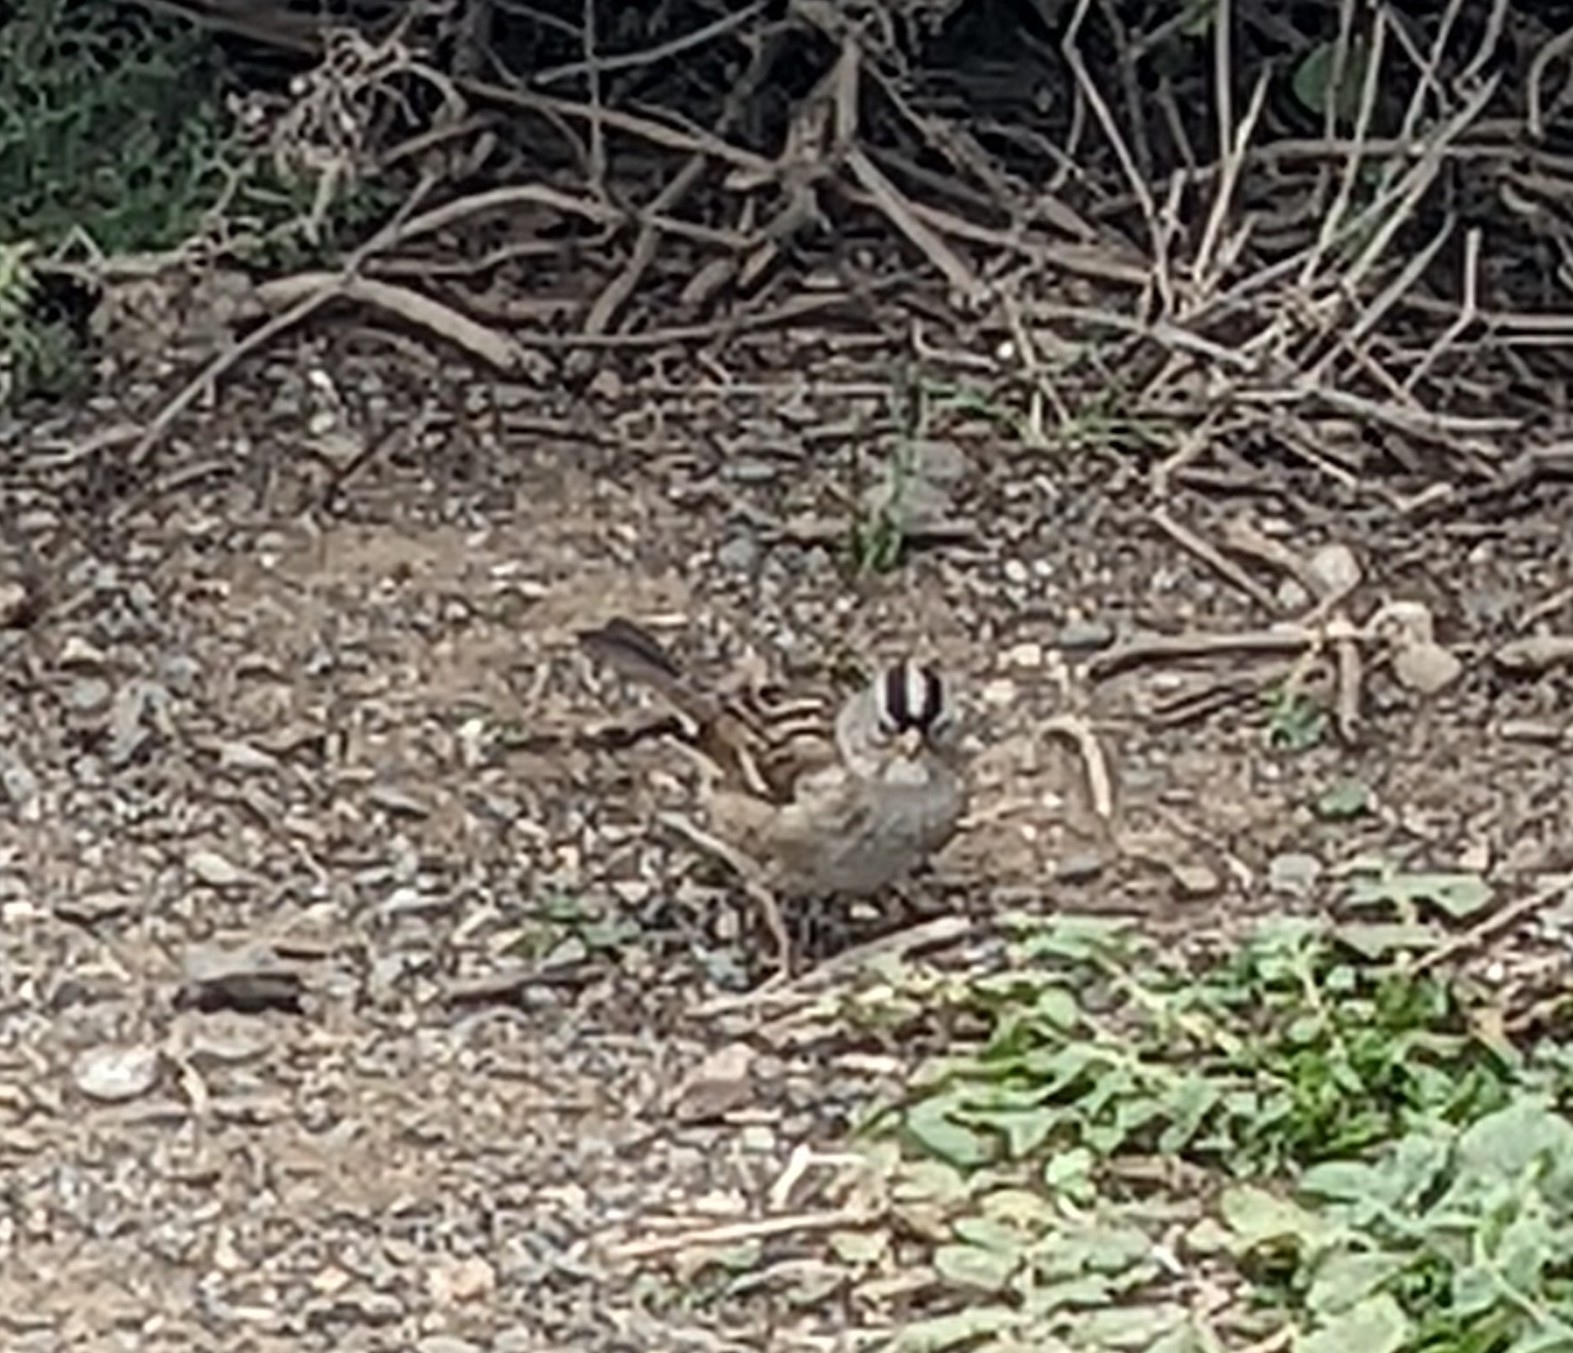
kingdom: Animalia
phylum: Chordata
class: Aves
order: Passeriformes
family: Passerellidae
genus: Zonotrichia
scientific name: Zonotrichia leucophrys
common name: White-crowned sparrow
